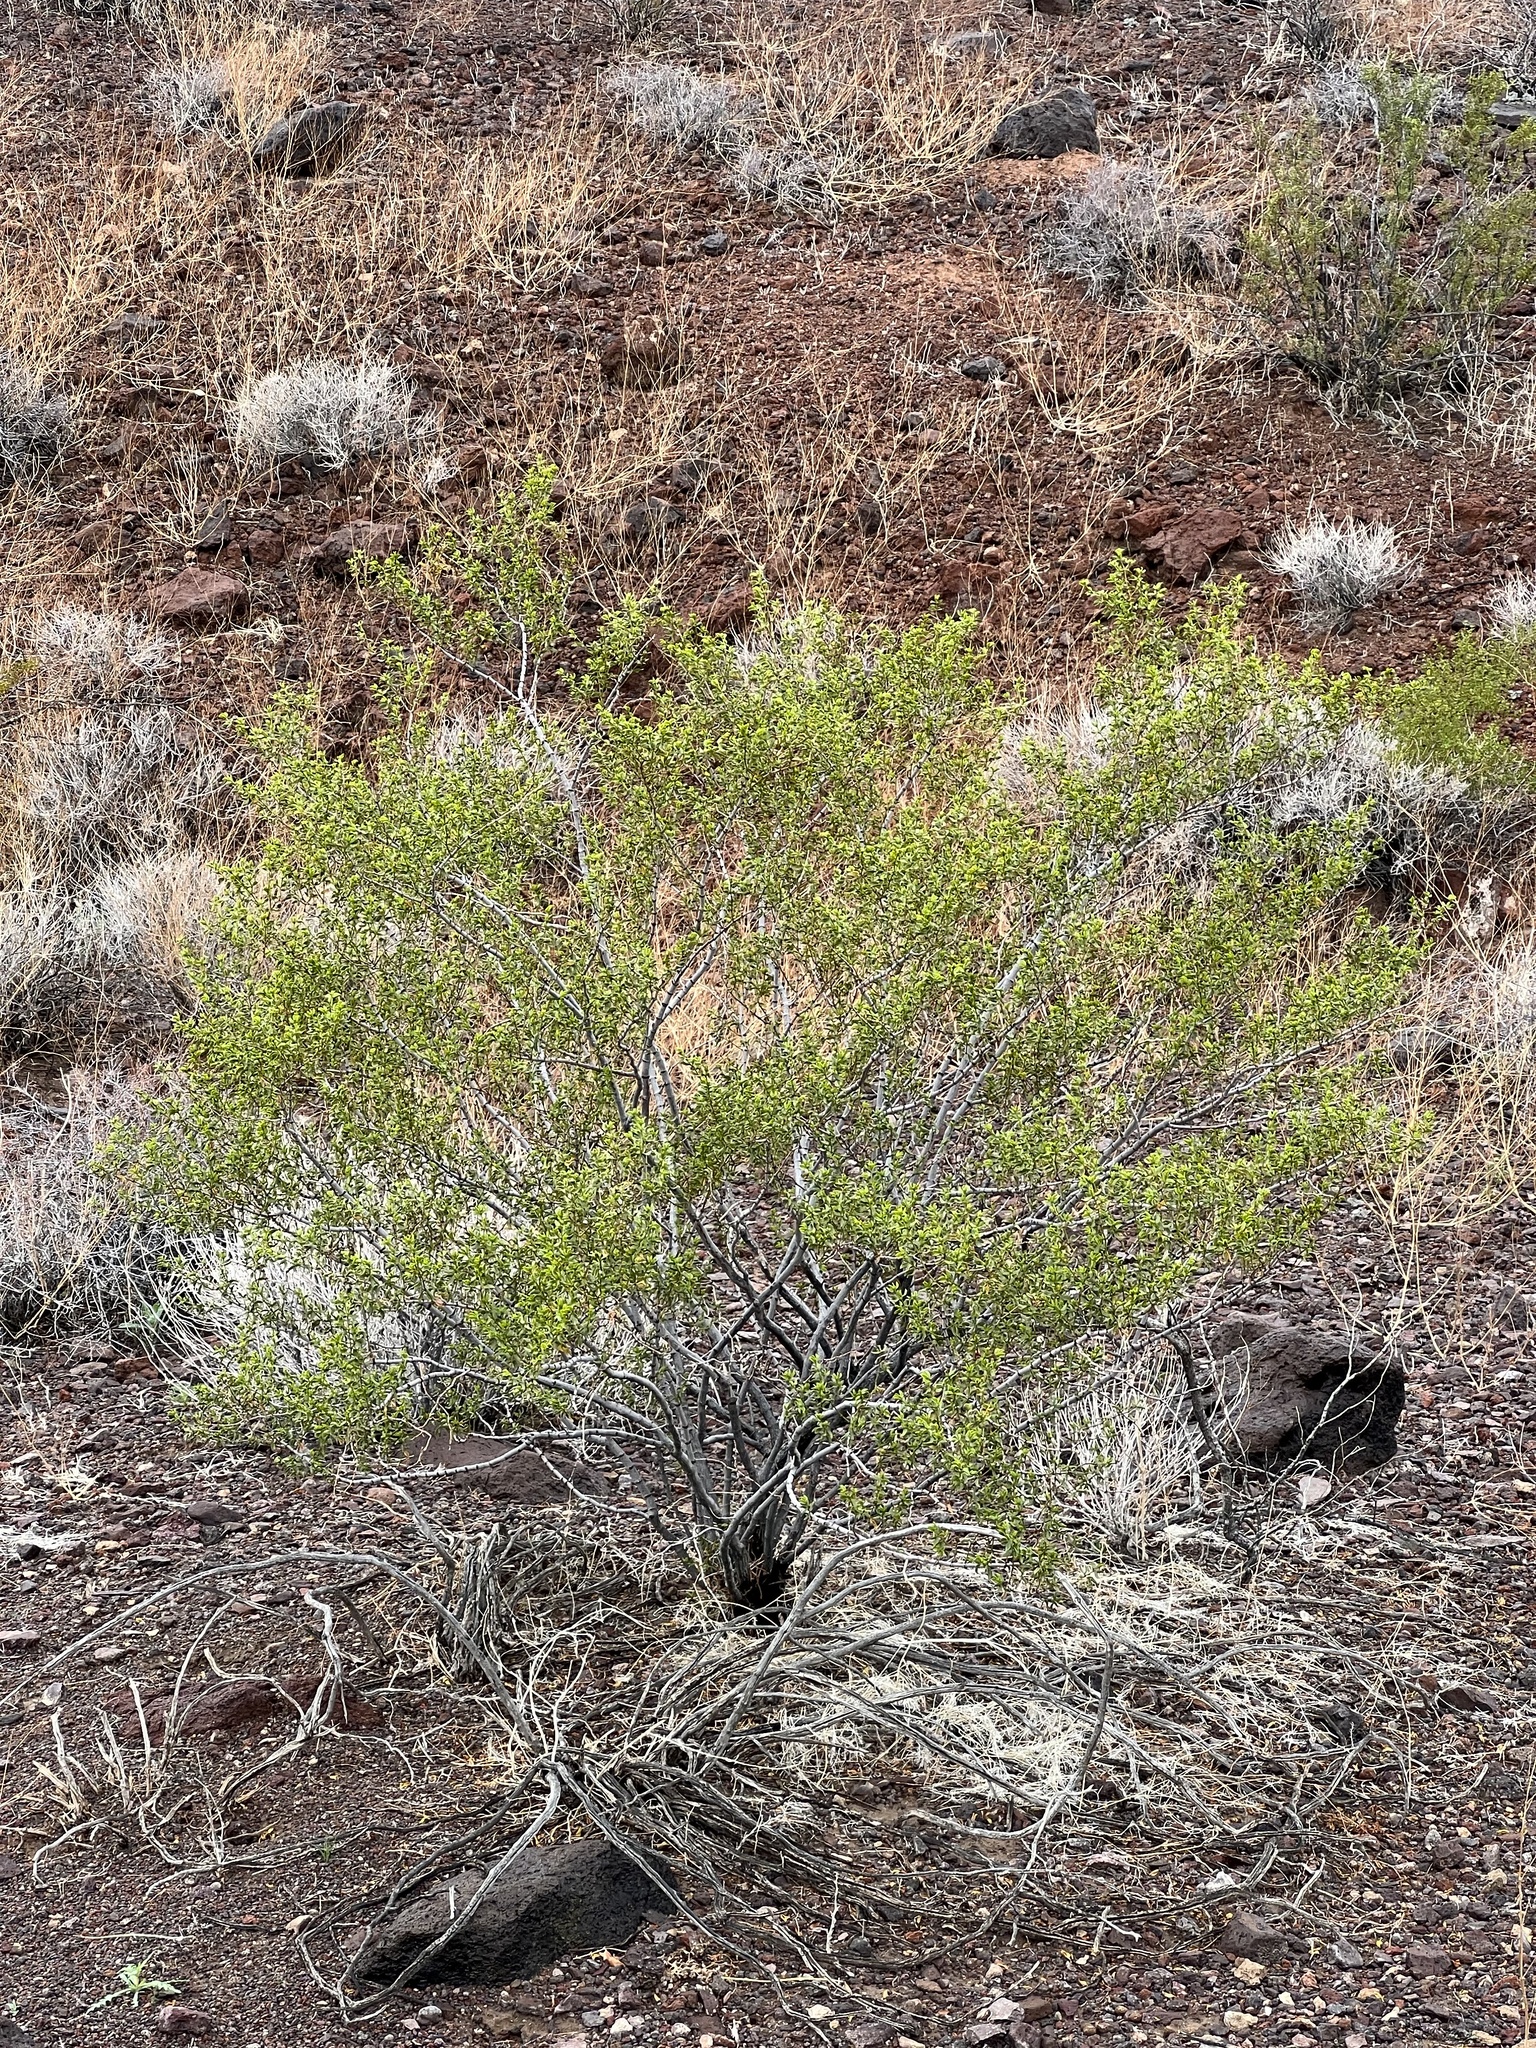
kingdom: Plantae
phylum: Tracheophyta
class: Magnoliopsida
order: Zygophyllales
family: Zygophyllaceae
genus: Larrea
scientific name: Larrea tridentata
